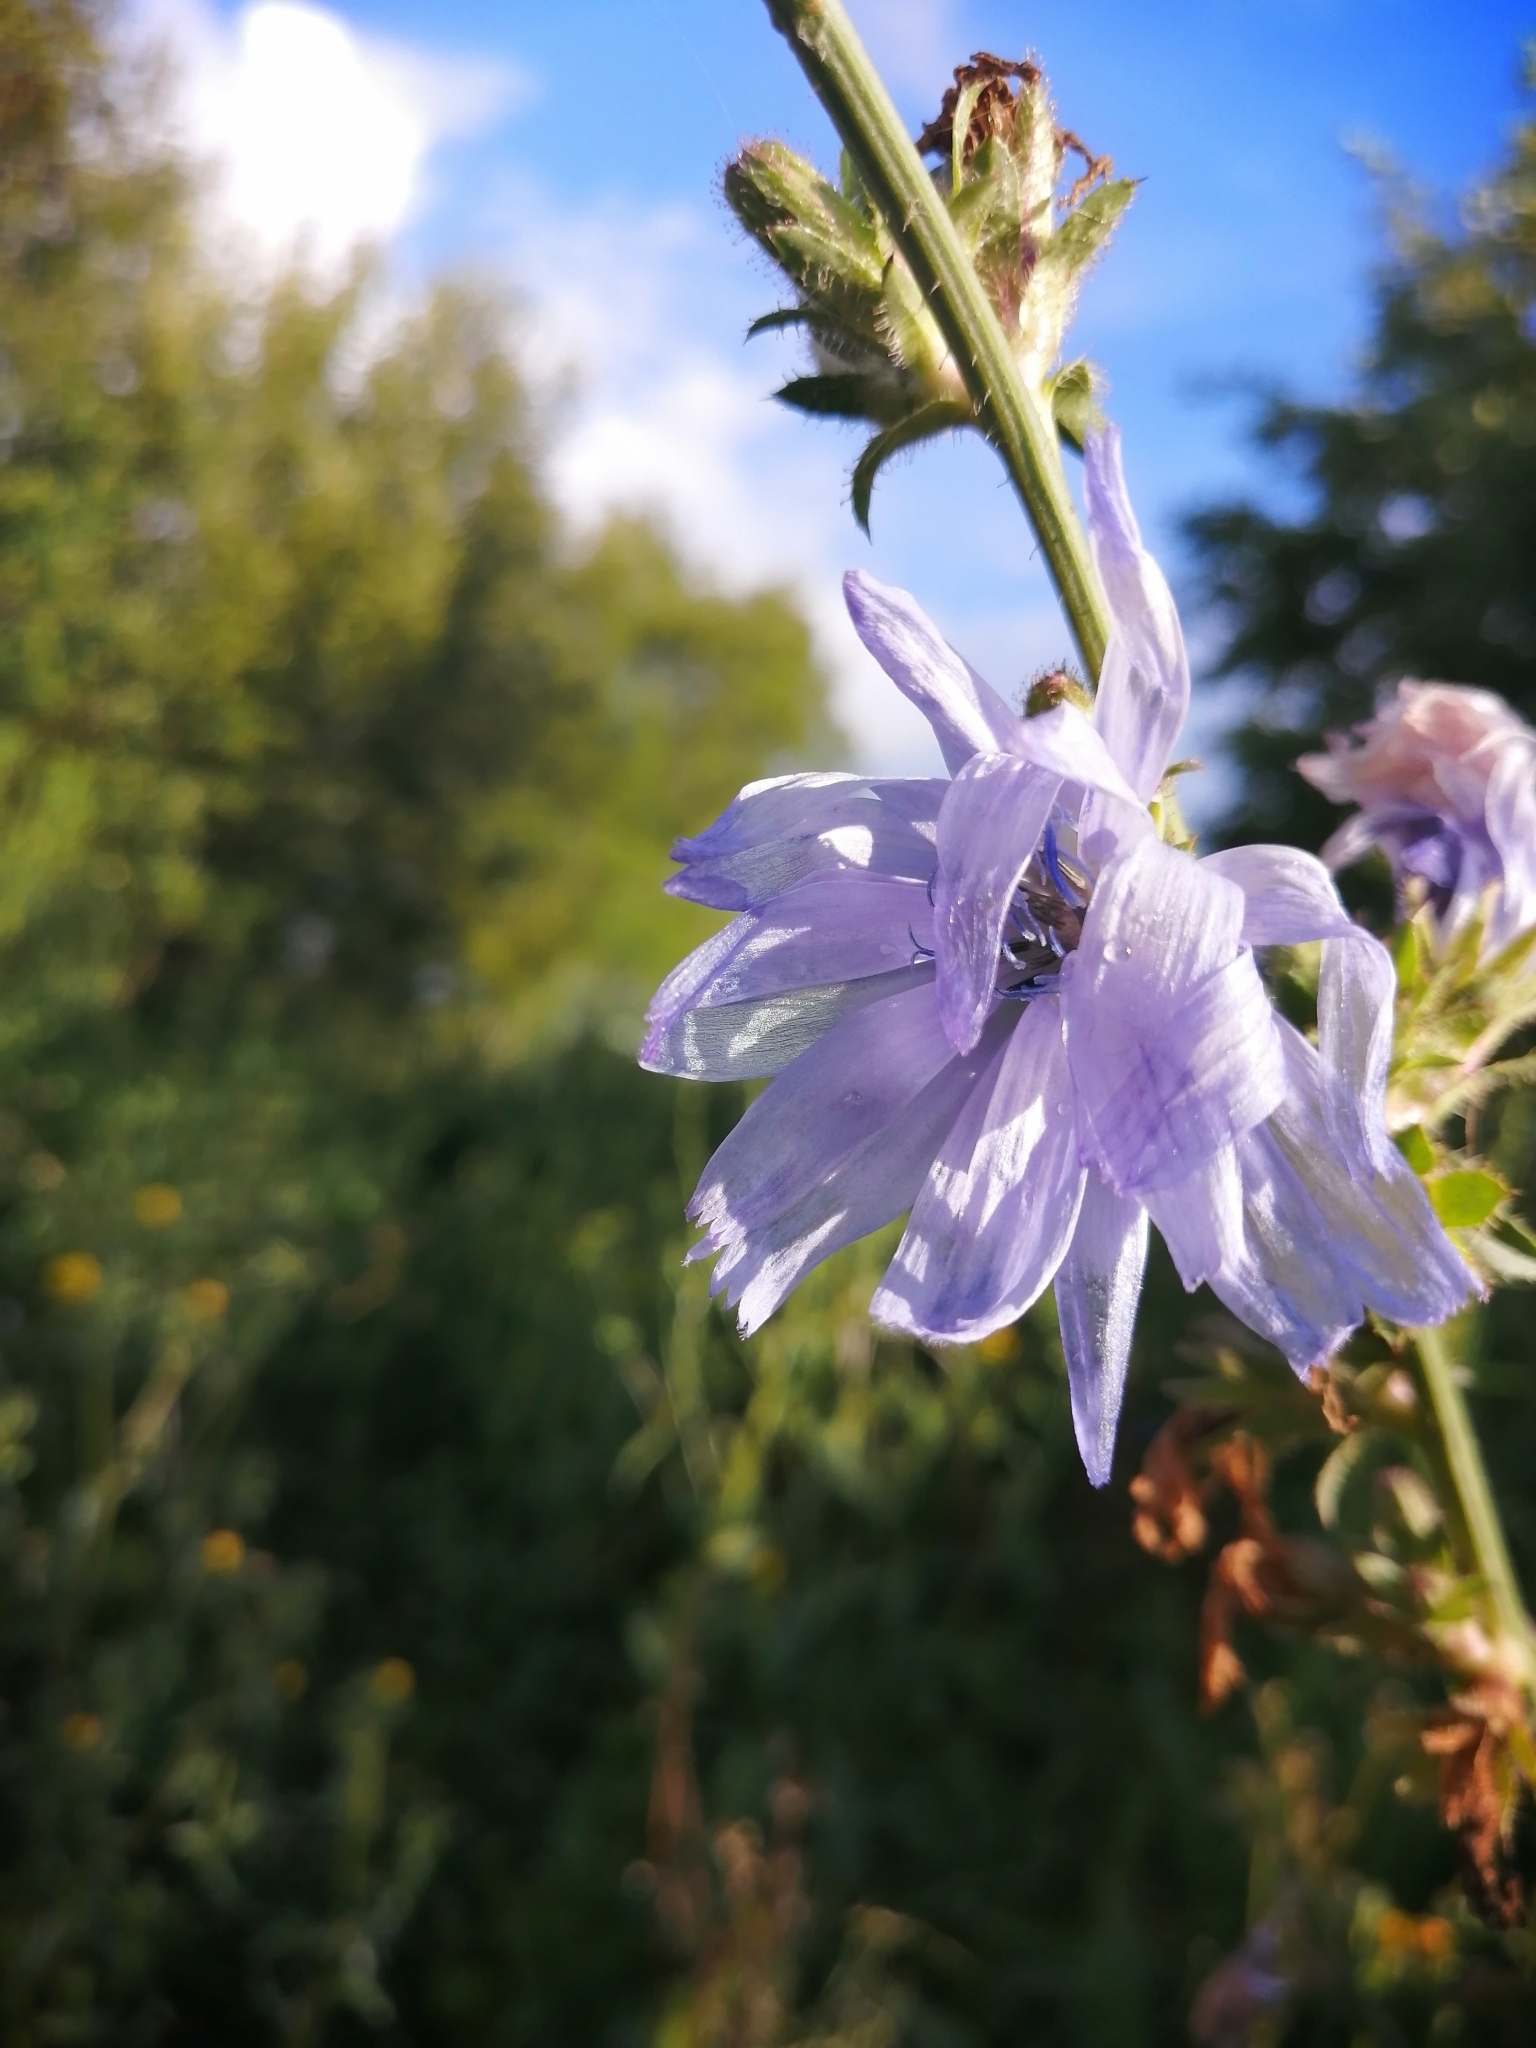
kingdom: Plantae
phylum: Tracheophyta
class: Magnoliopsida
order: Asterales
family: Asteraceae
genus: Cichorium
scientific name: Cichorium intybus
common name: Chicory
